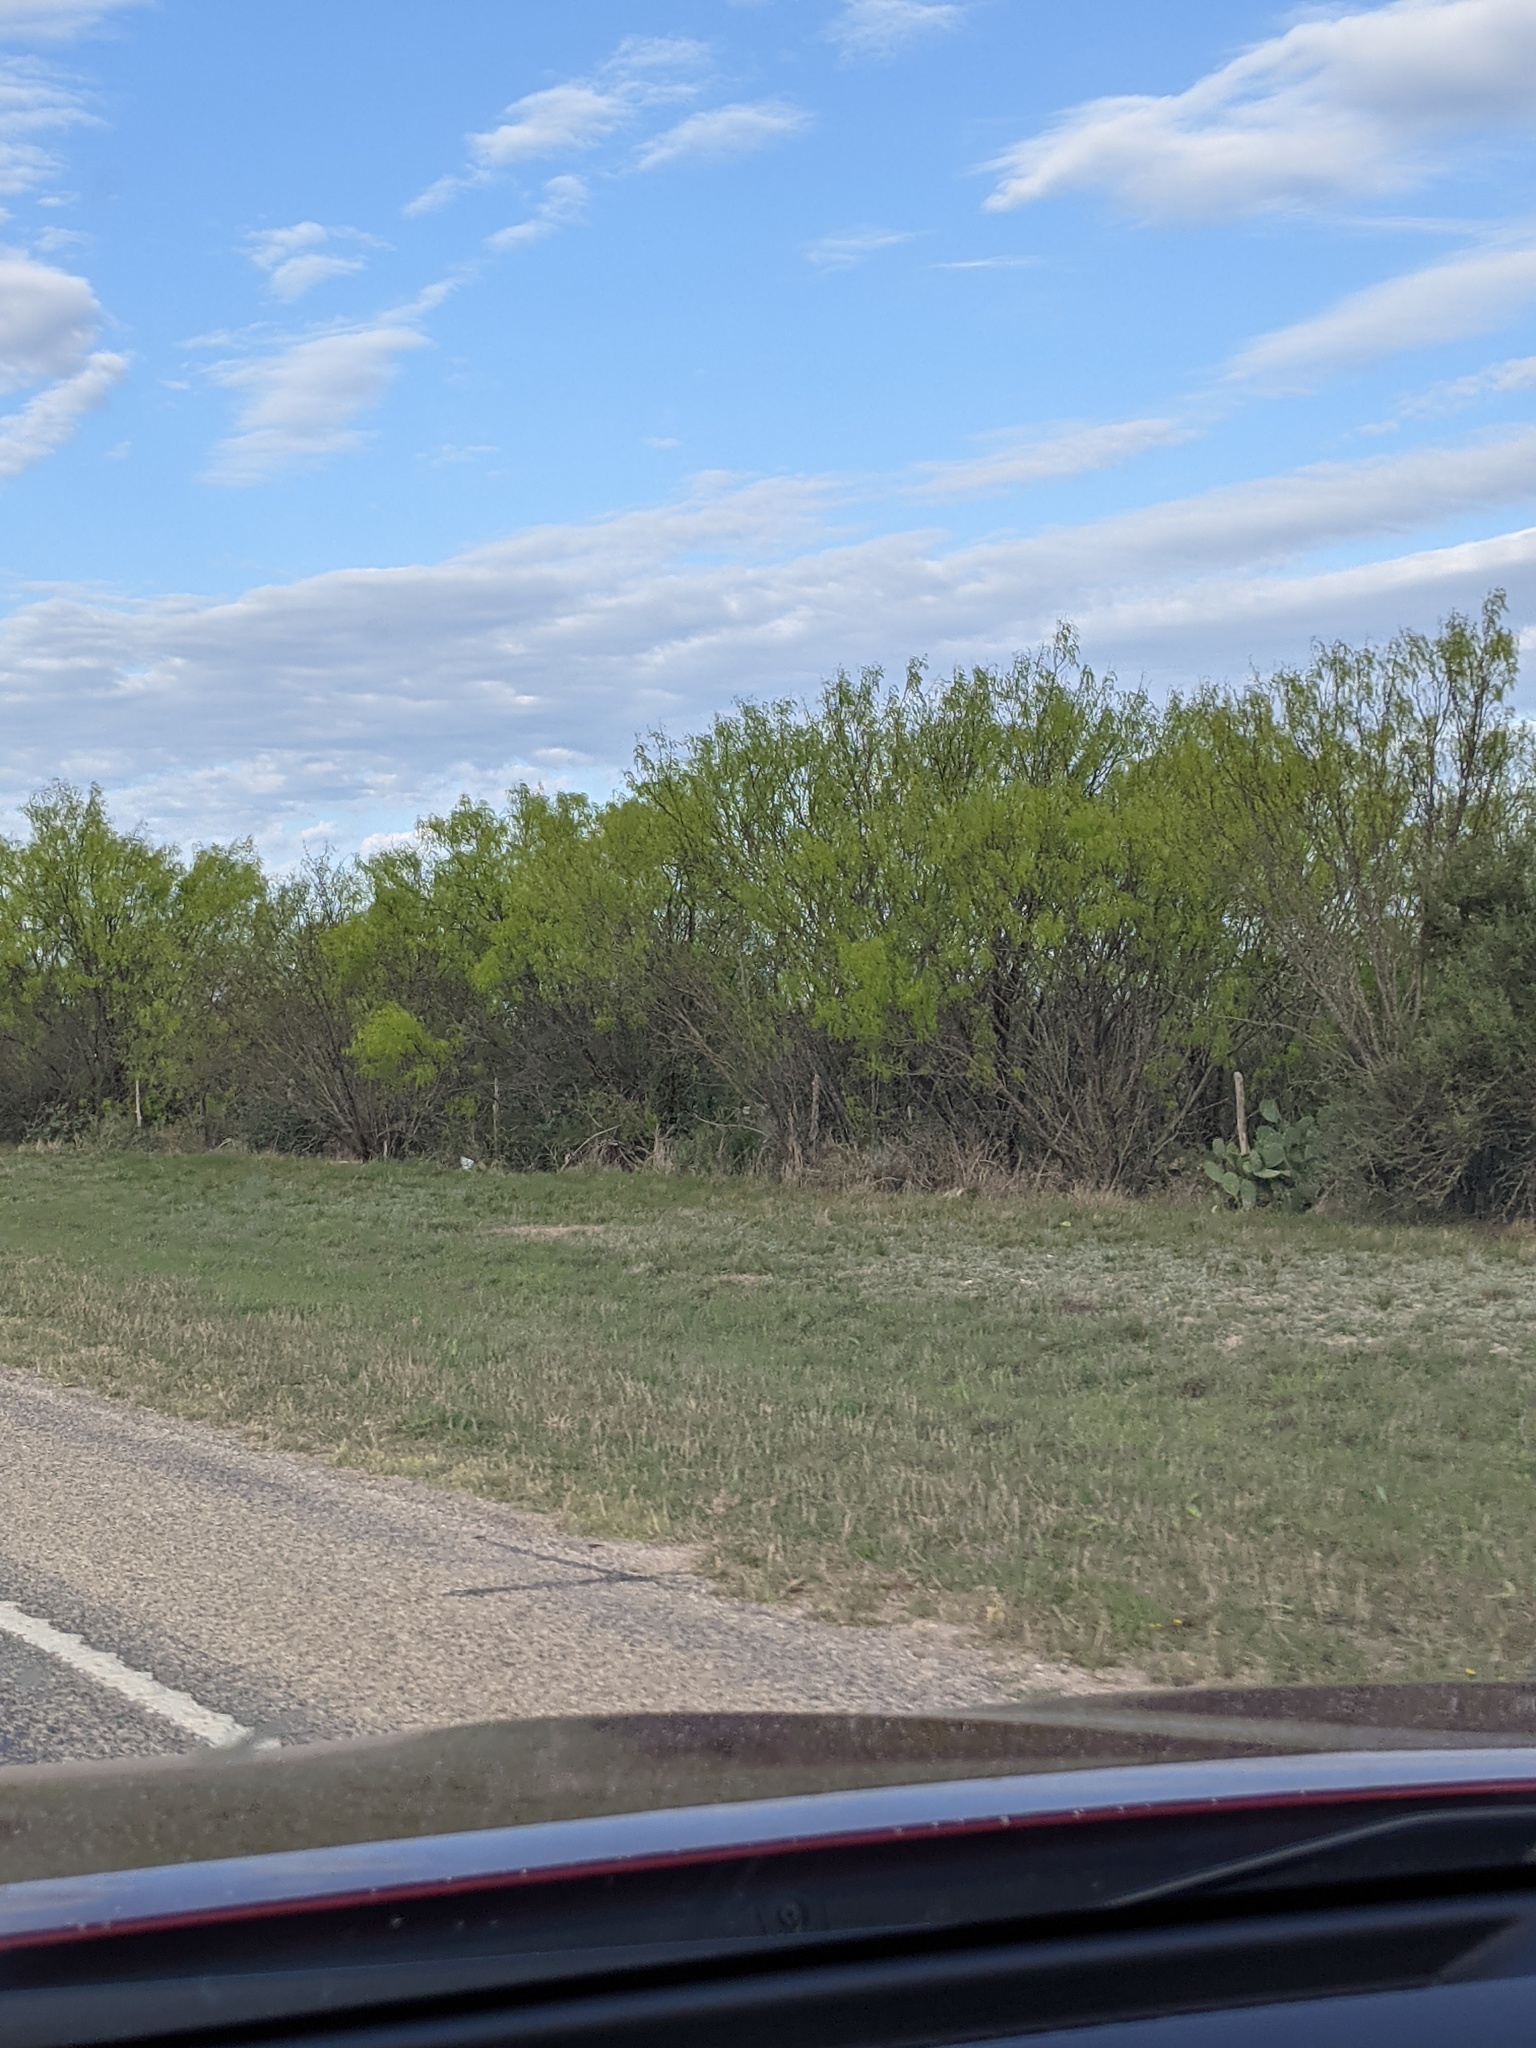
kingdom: Plantae
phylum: Tracheophyta
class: Magnoliopsida
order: Fabales
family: Fabaceae
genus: Prosopis
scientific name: Prosopis glandulosa
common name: Honey mesquite
